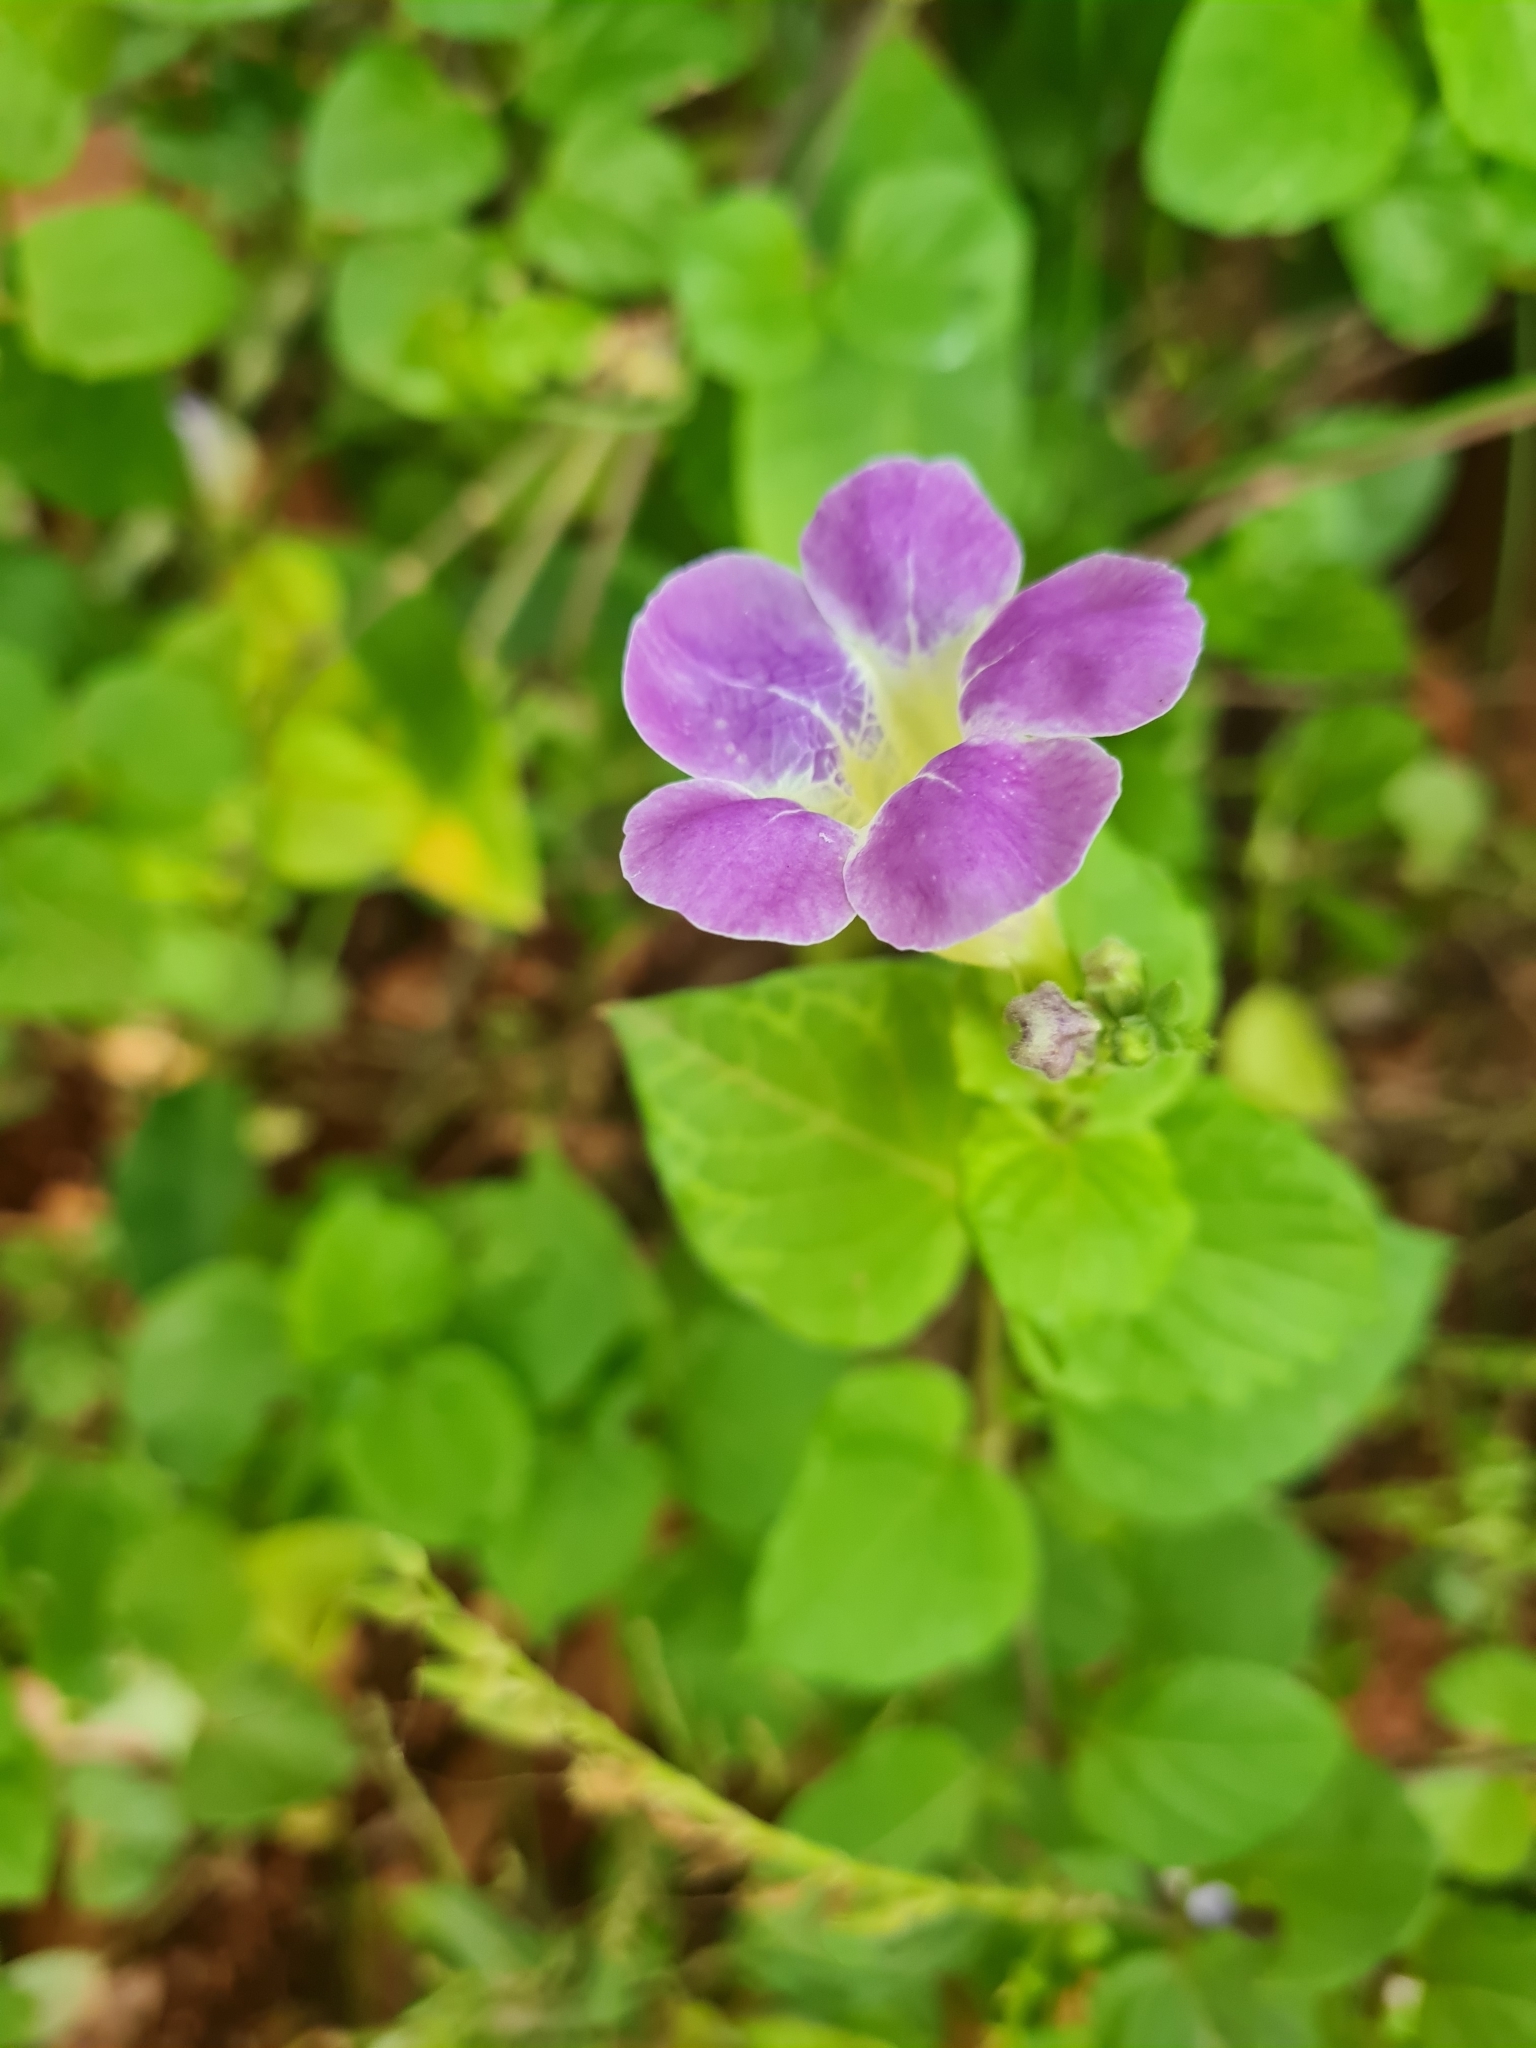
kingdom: Plantae
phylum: Tracheophyta
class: Magnoliopsida
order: Lamiales
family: Acanthaceae
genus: Asystasia
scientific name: Asystasia gangetica
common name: Chinese violet
